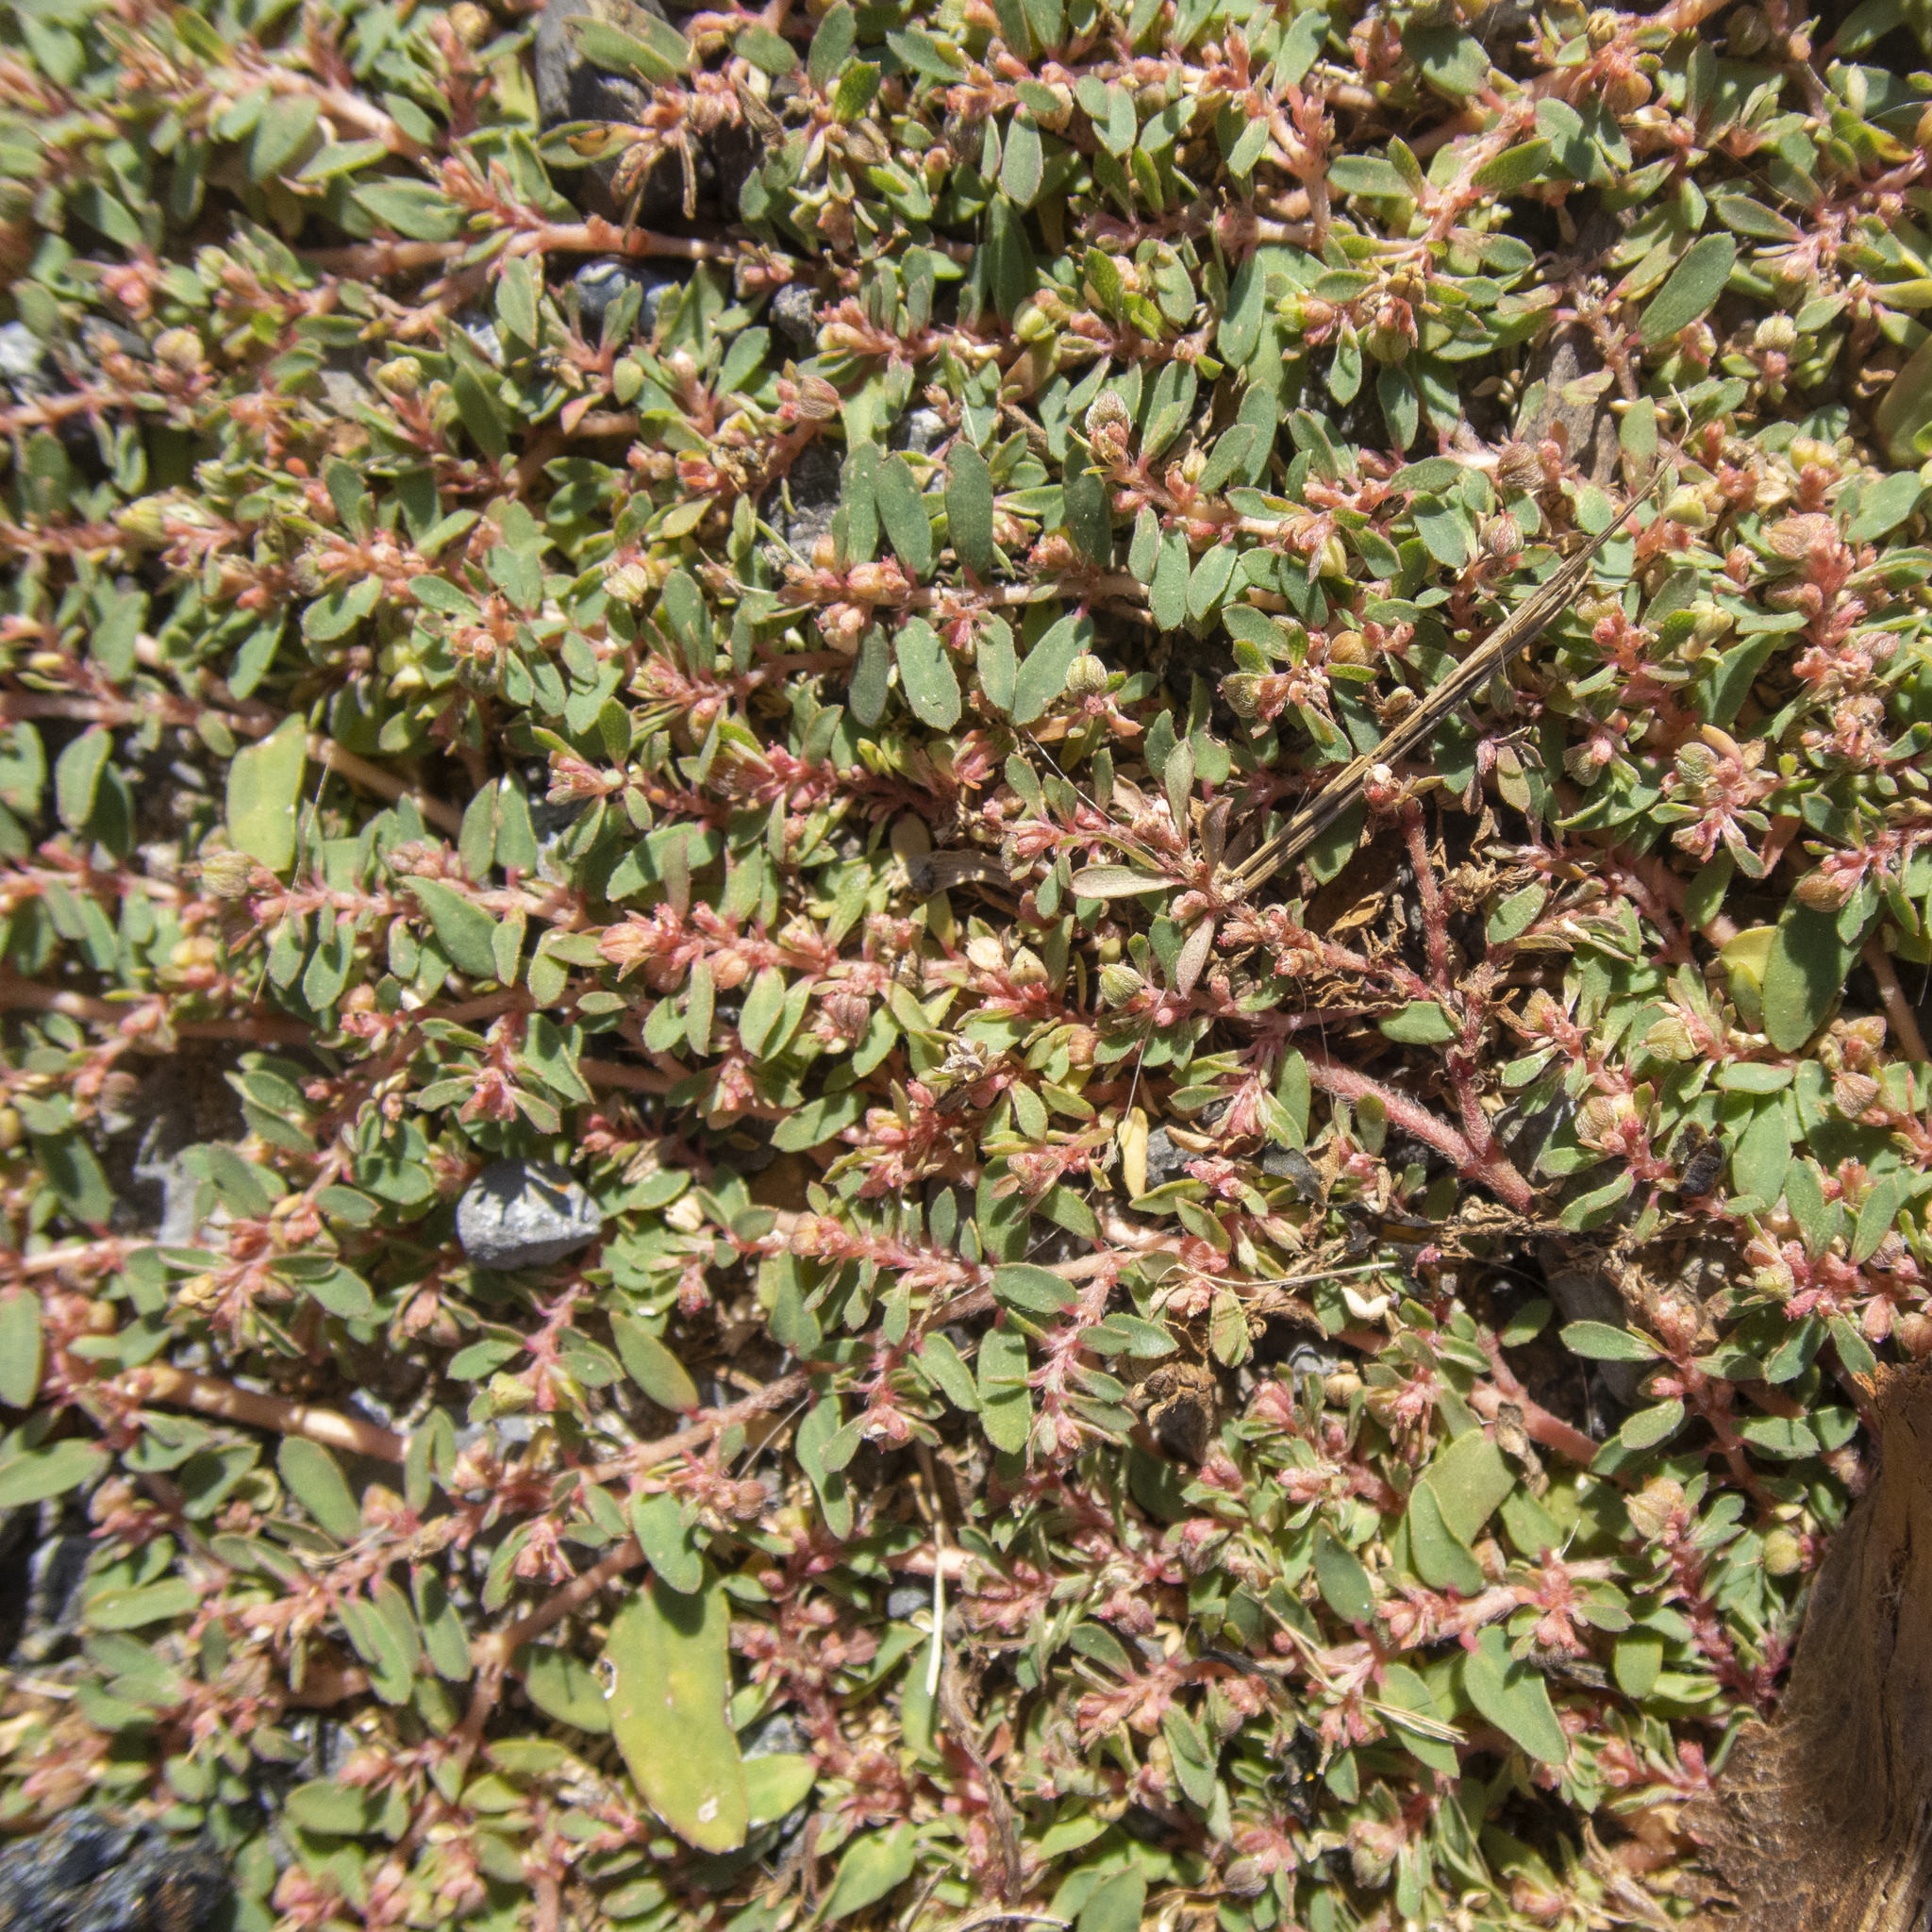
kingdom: Plantae
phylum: Tracheophyta
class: Magnoliopsida
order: Malpighiales
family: Euphorbiaceae
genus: Euphorbia
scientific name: Euphorbia maculata
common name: Spotted spurge
